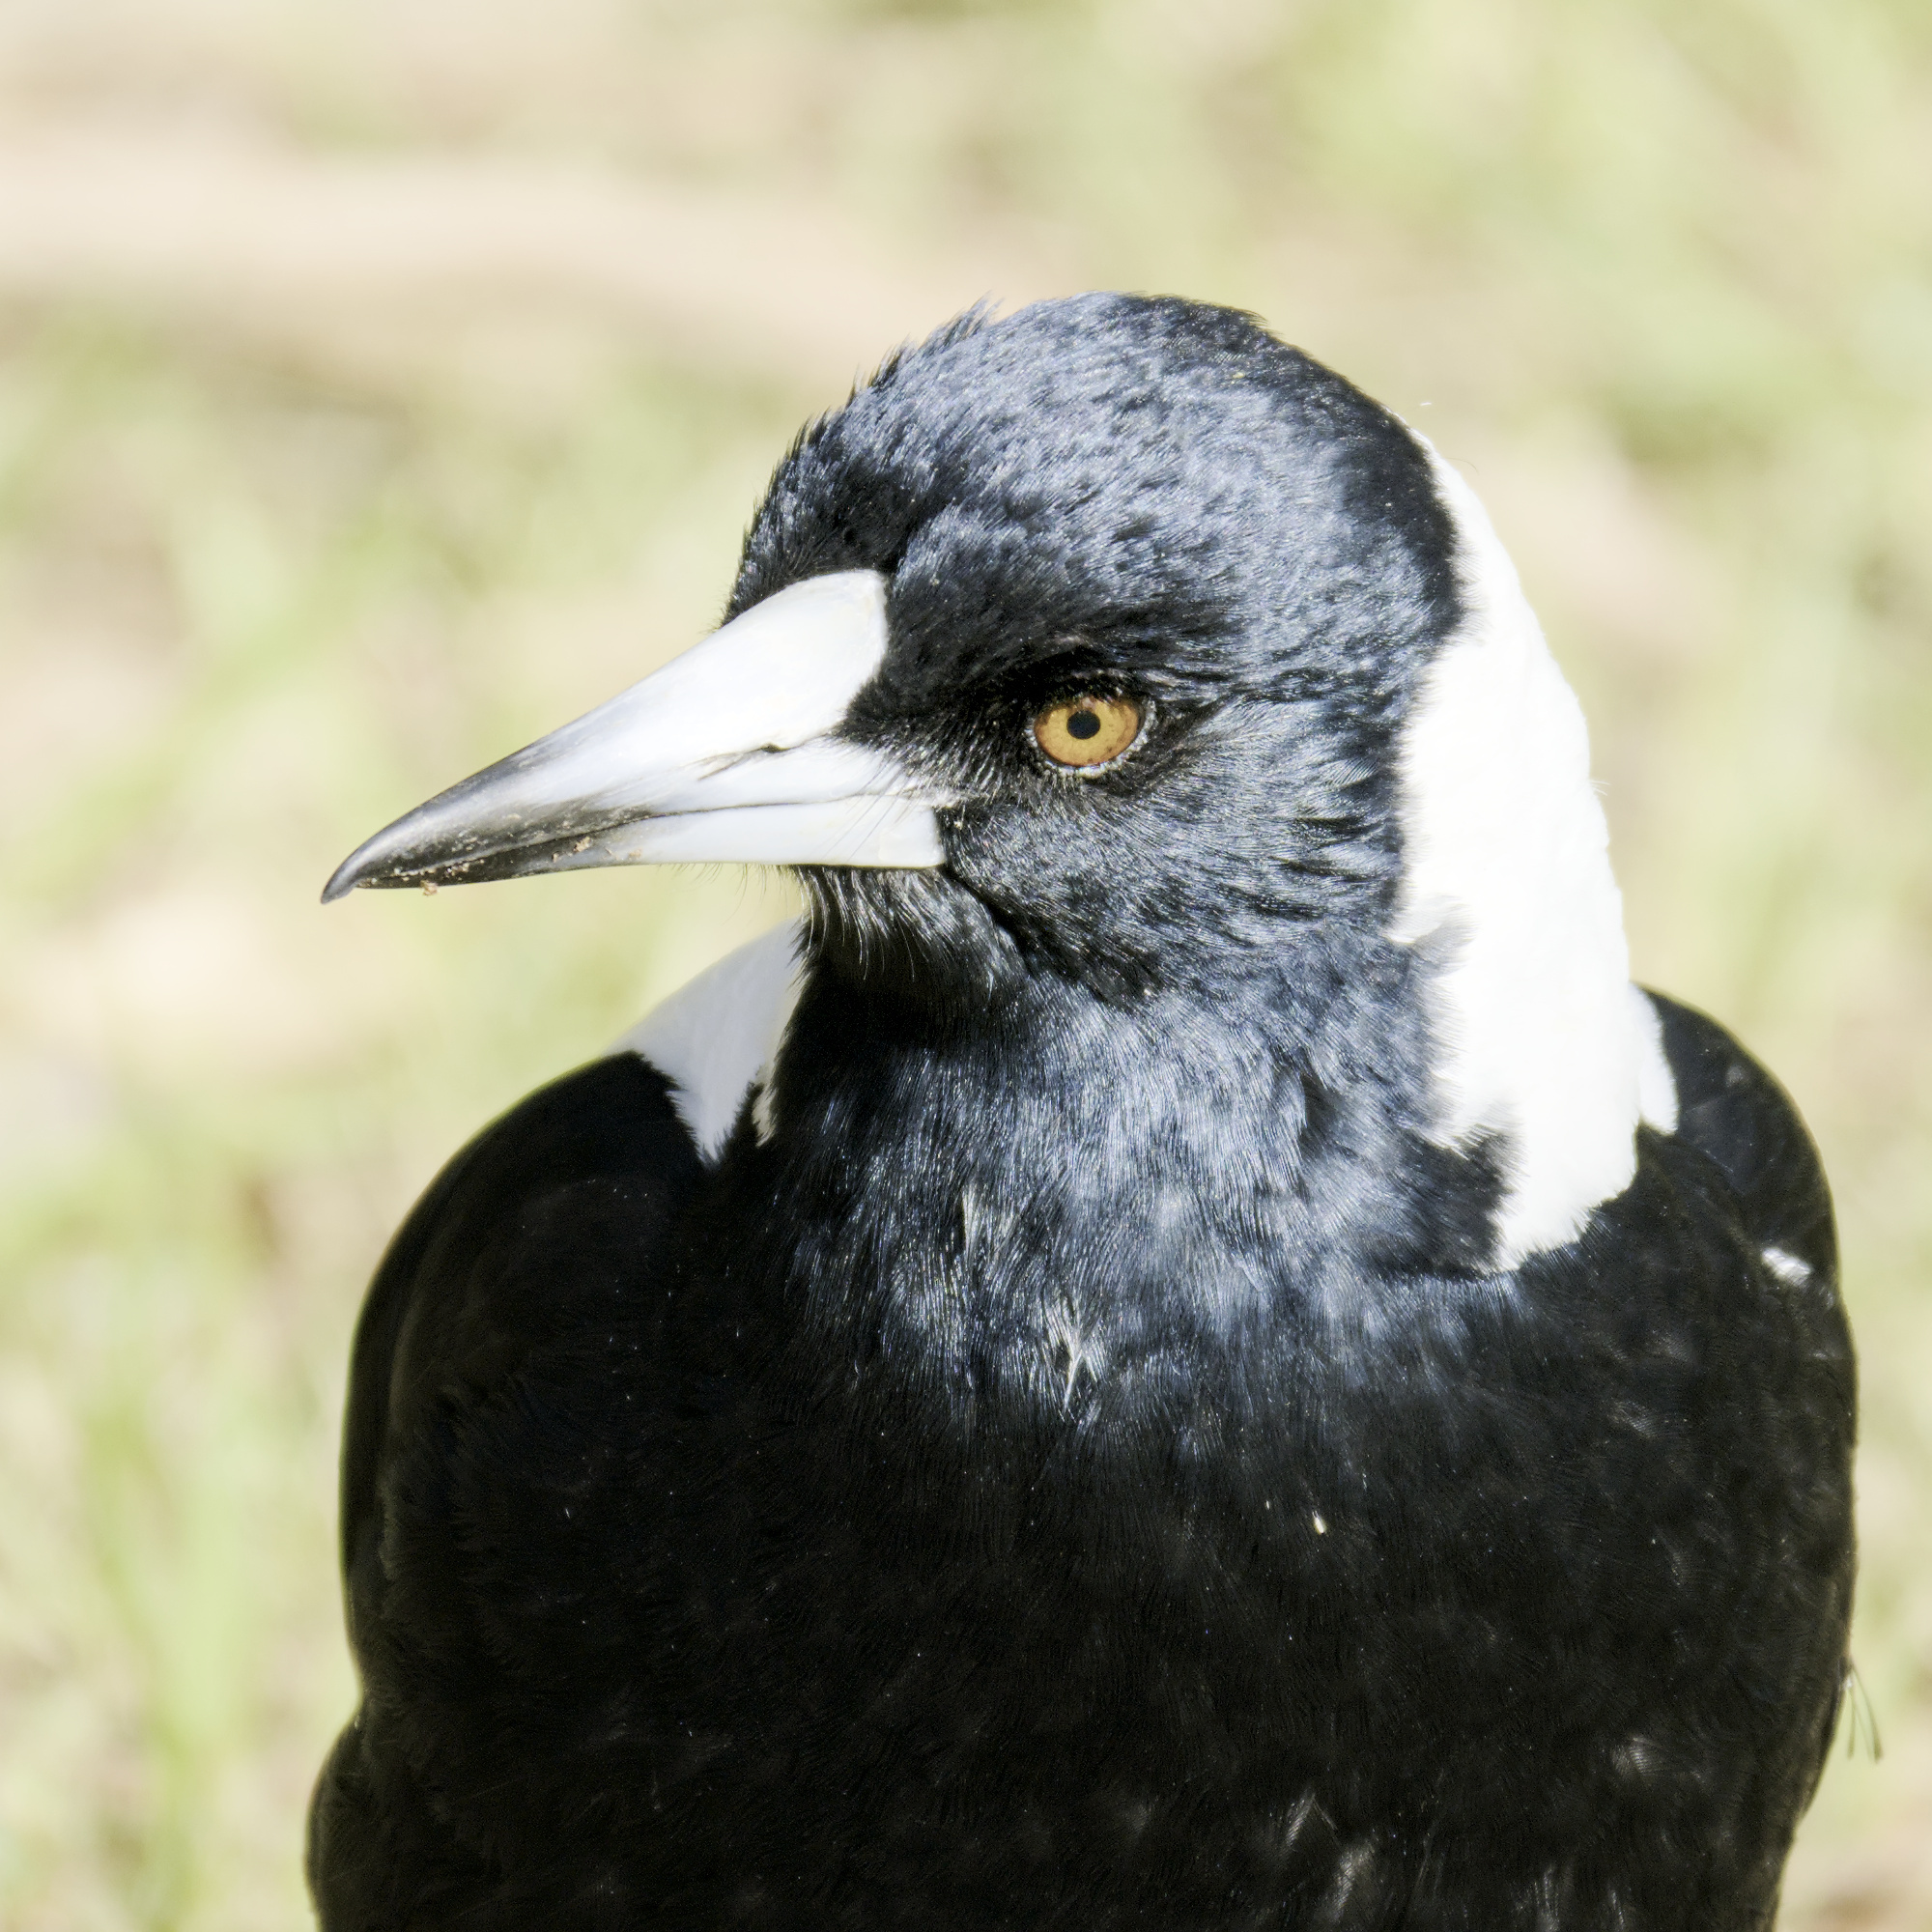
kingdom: Animalia
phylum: Chordata
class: Aves
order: Passeriformes
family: Cracticidae
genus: Gymnorhina
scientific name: Gymnorhina tibicen
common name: Australian magpie
